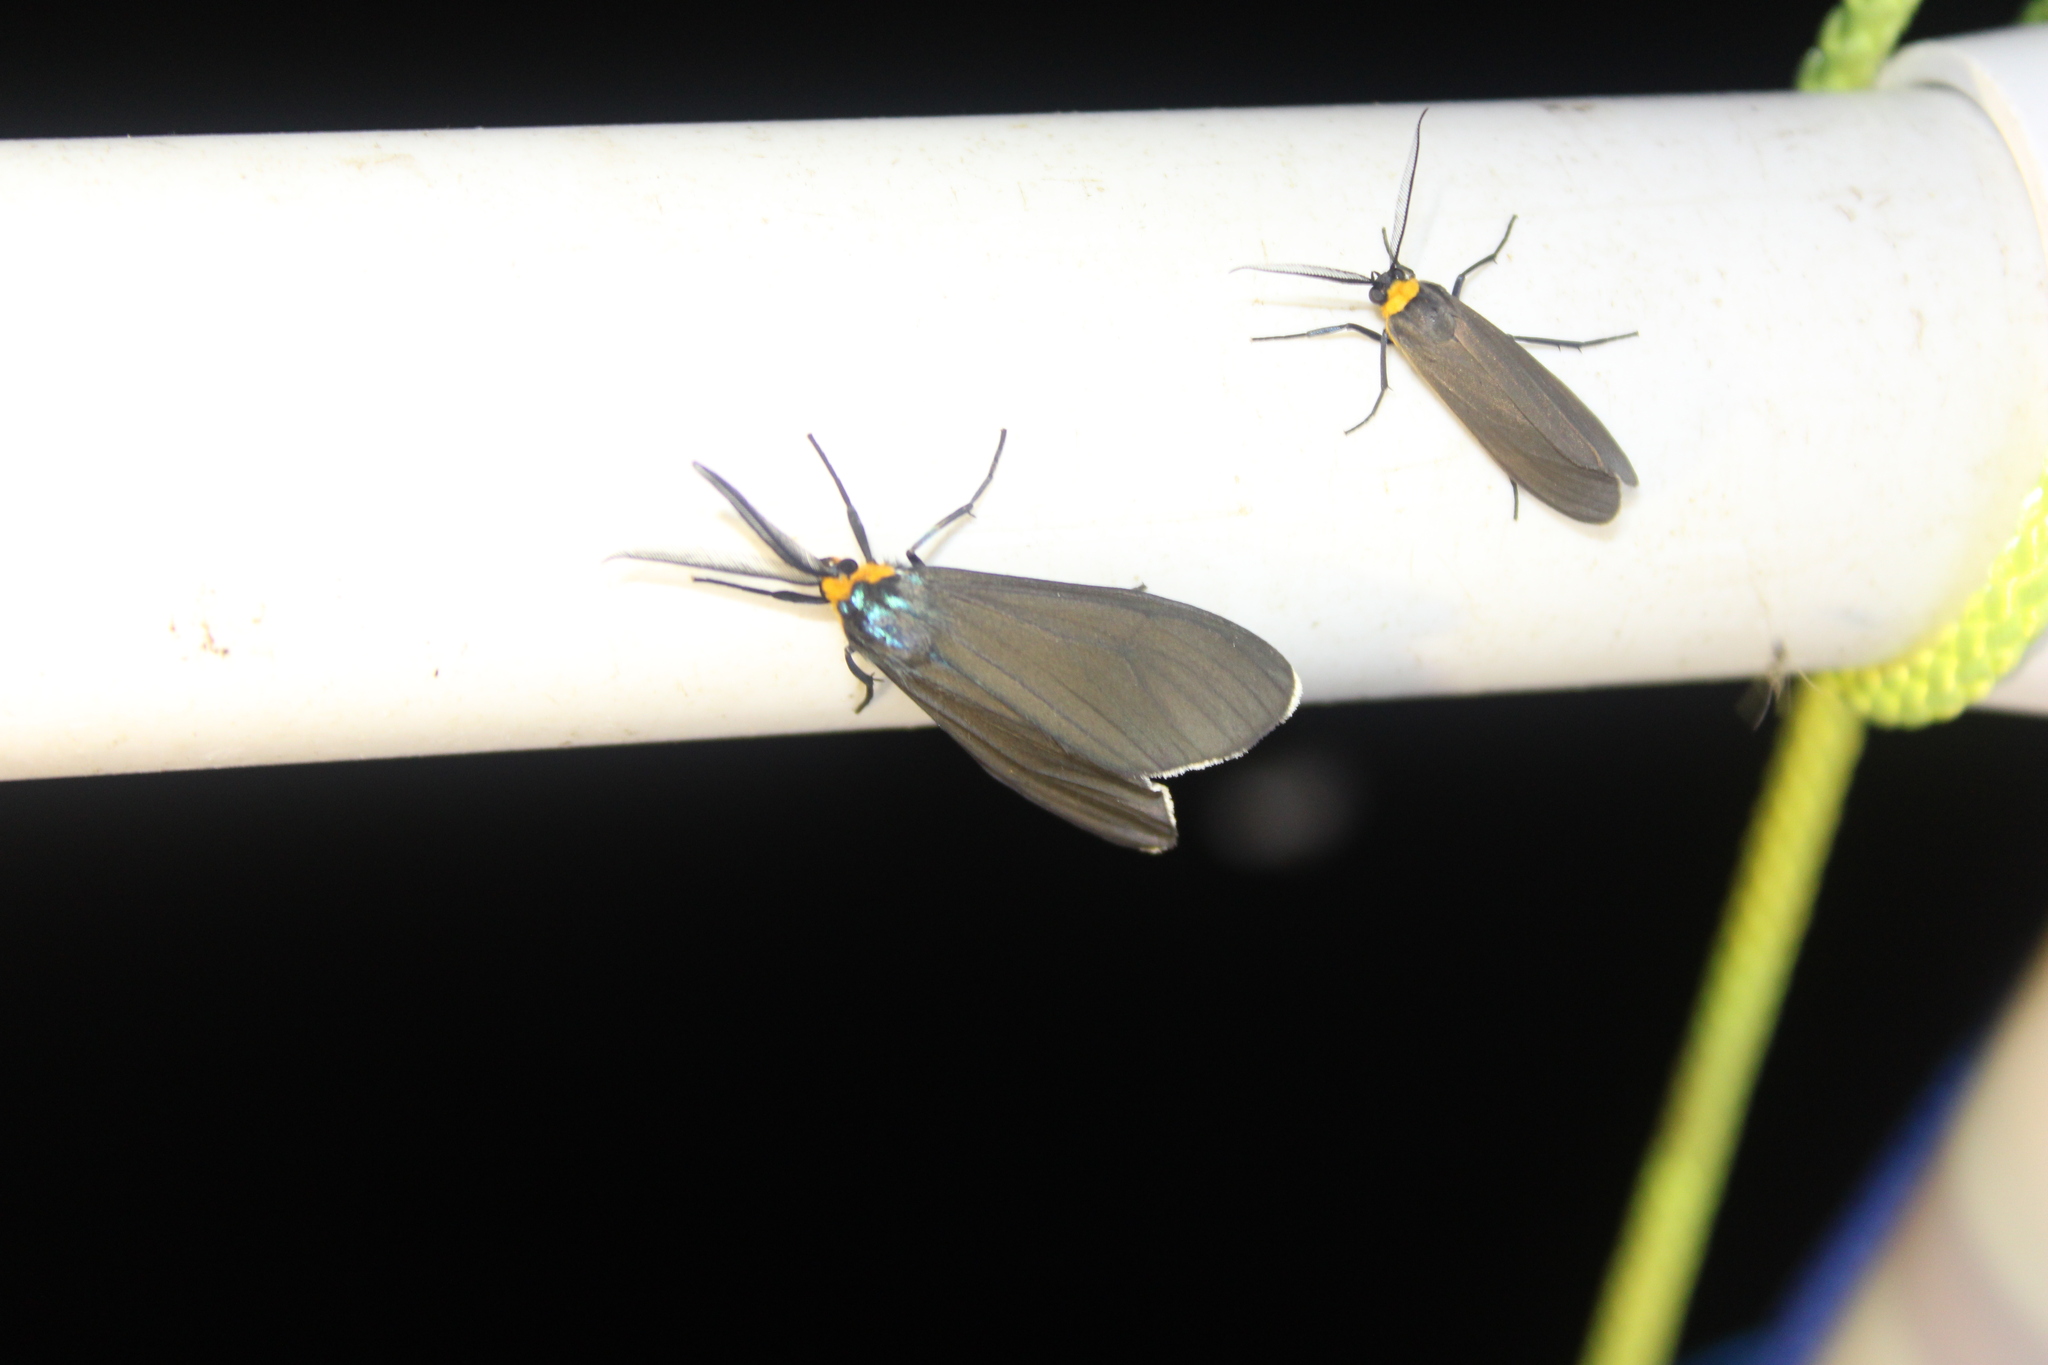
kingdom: Animalia
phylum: Arthropoda
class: Insecta
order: Lepidoptera
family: Erebidae
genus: Ctenucha
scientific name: Ctenucha virginica
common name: Virginia ctenucha moth
